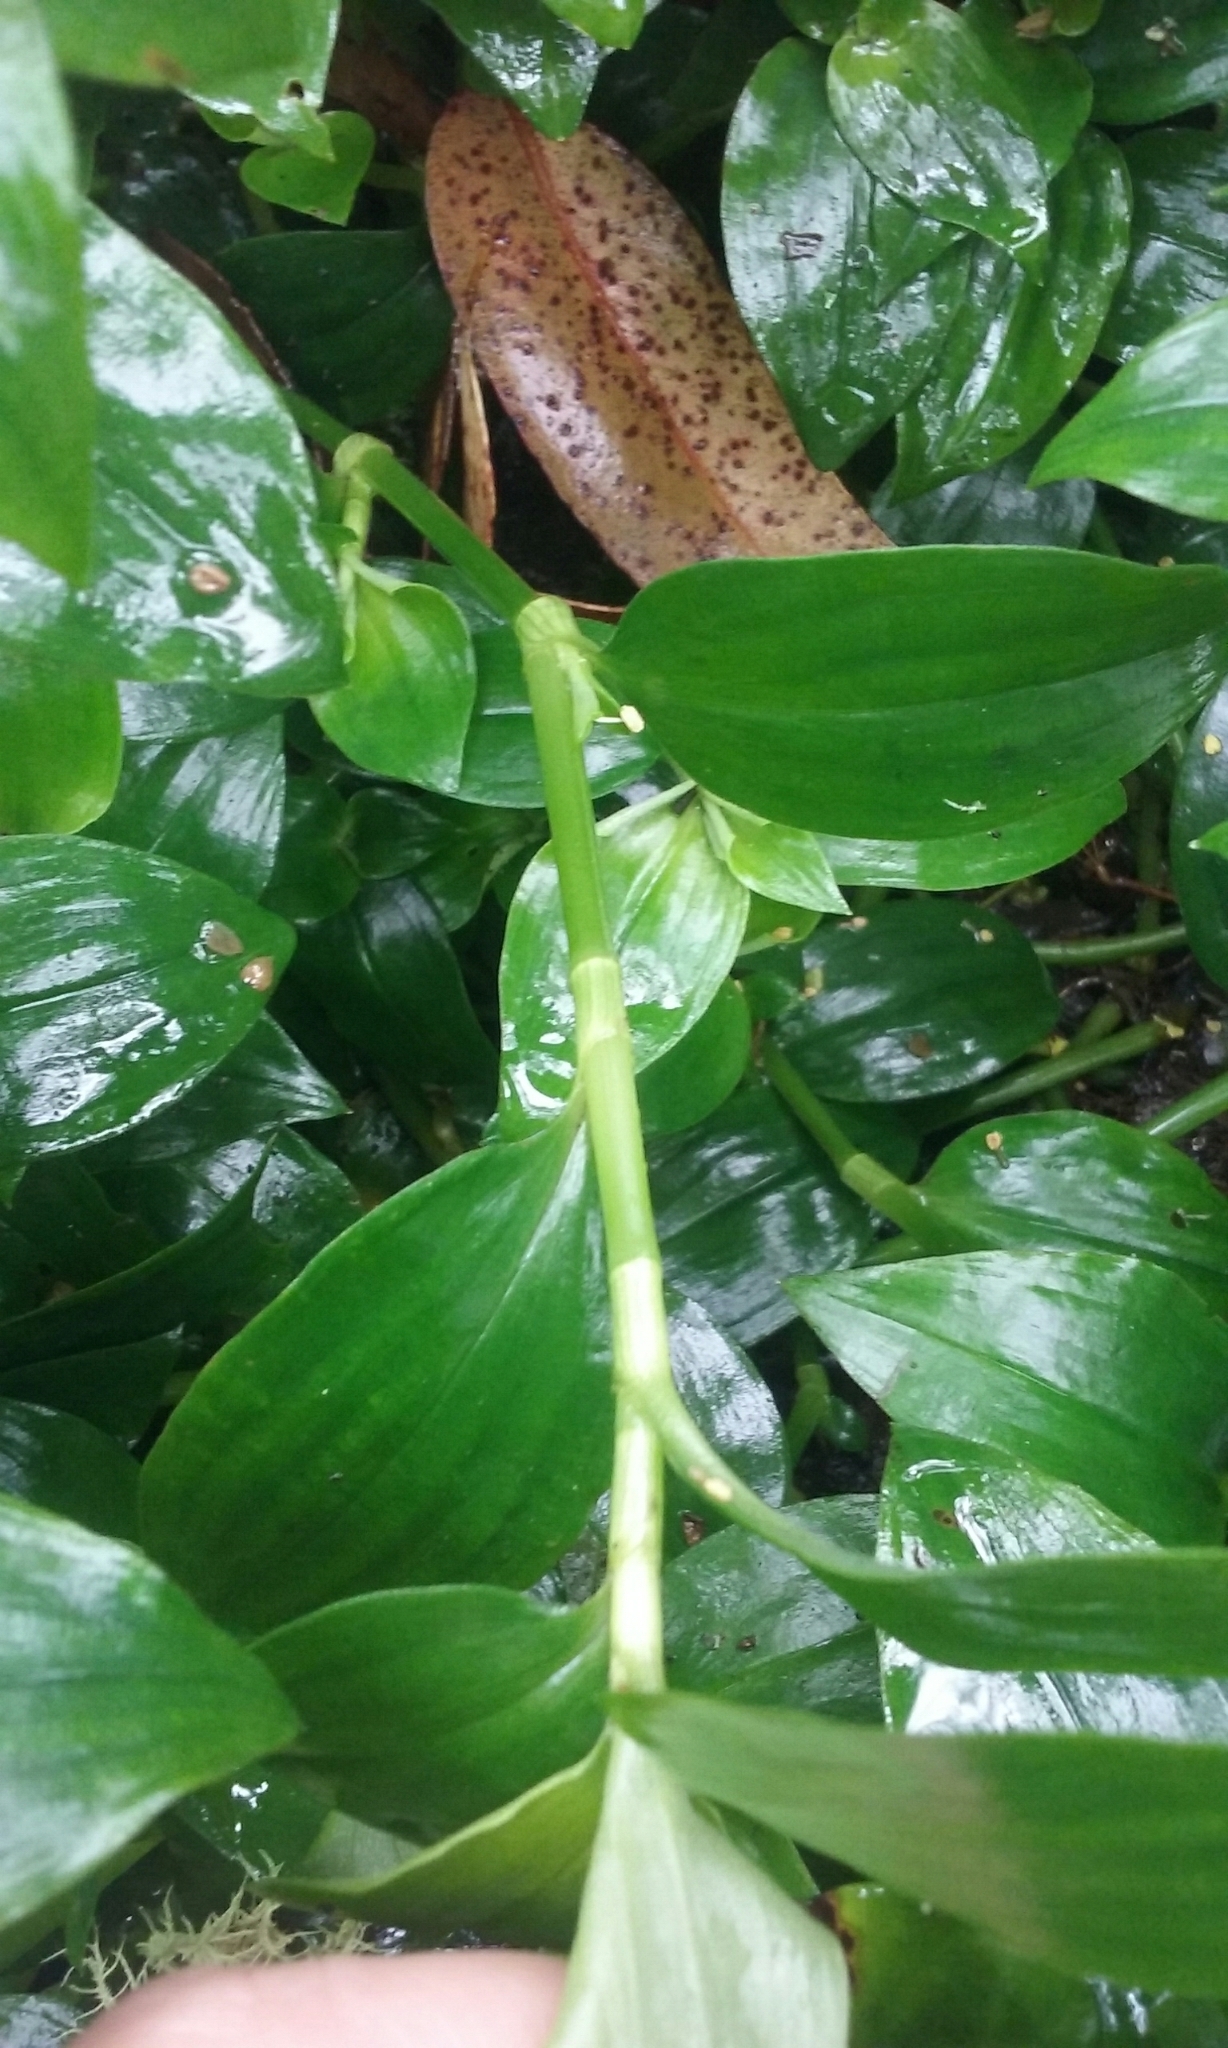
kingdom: Plantae
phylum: Tracheophyta
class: Liliopsida
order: Commelinales
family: Commelinaceae
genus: Tradescantia
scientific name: Tradescantia fluminensis
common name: Wandering-jew
